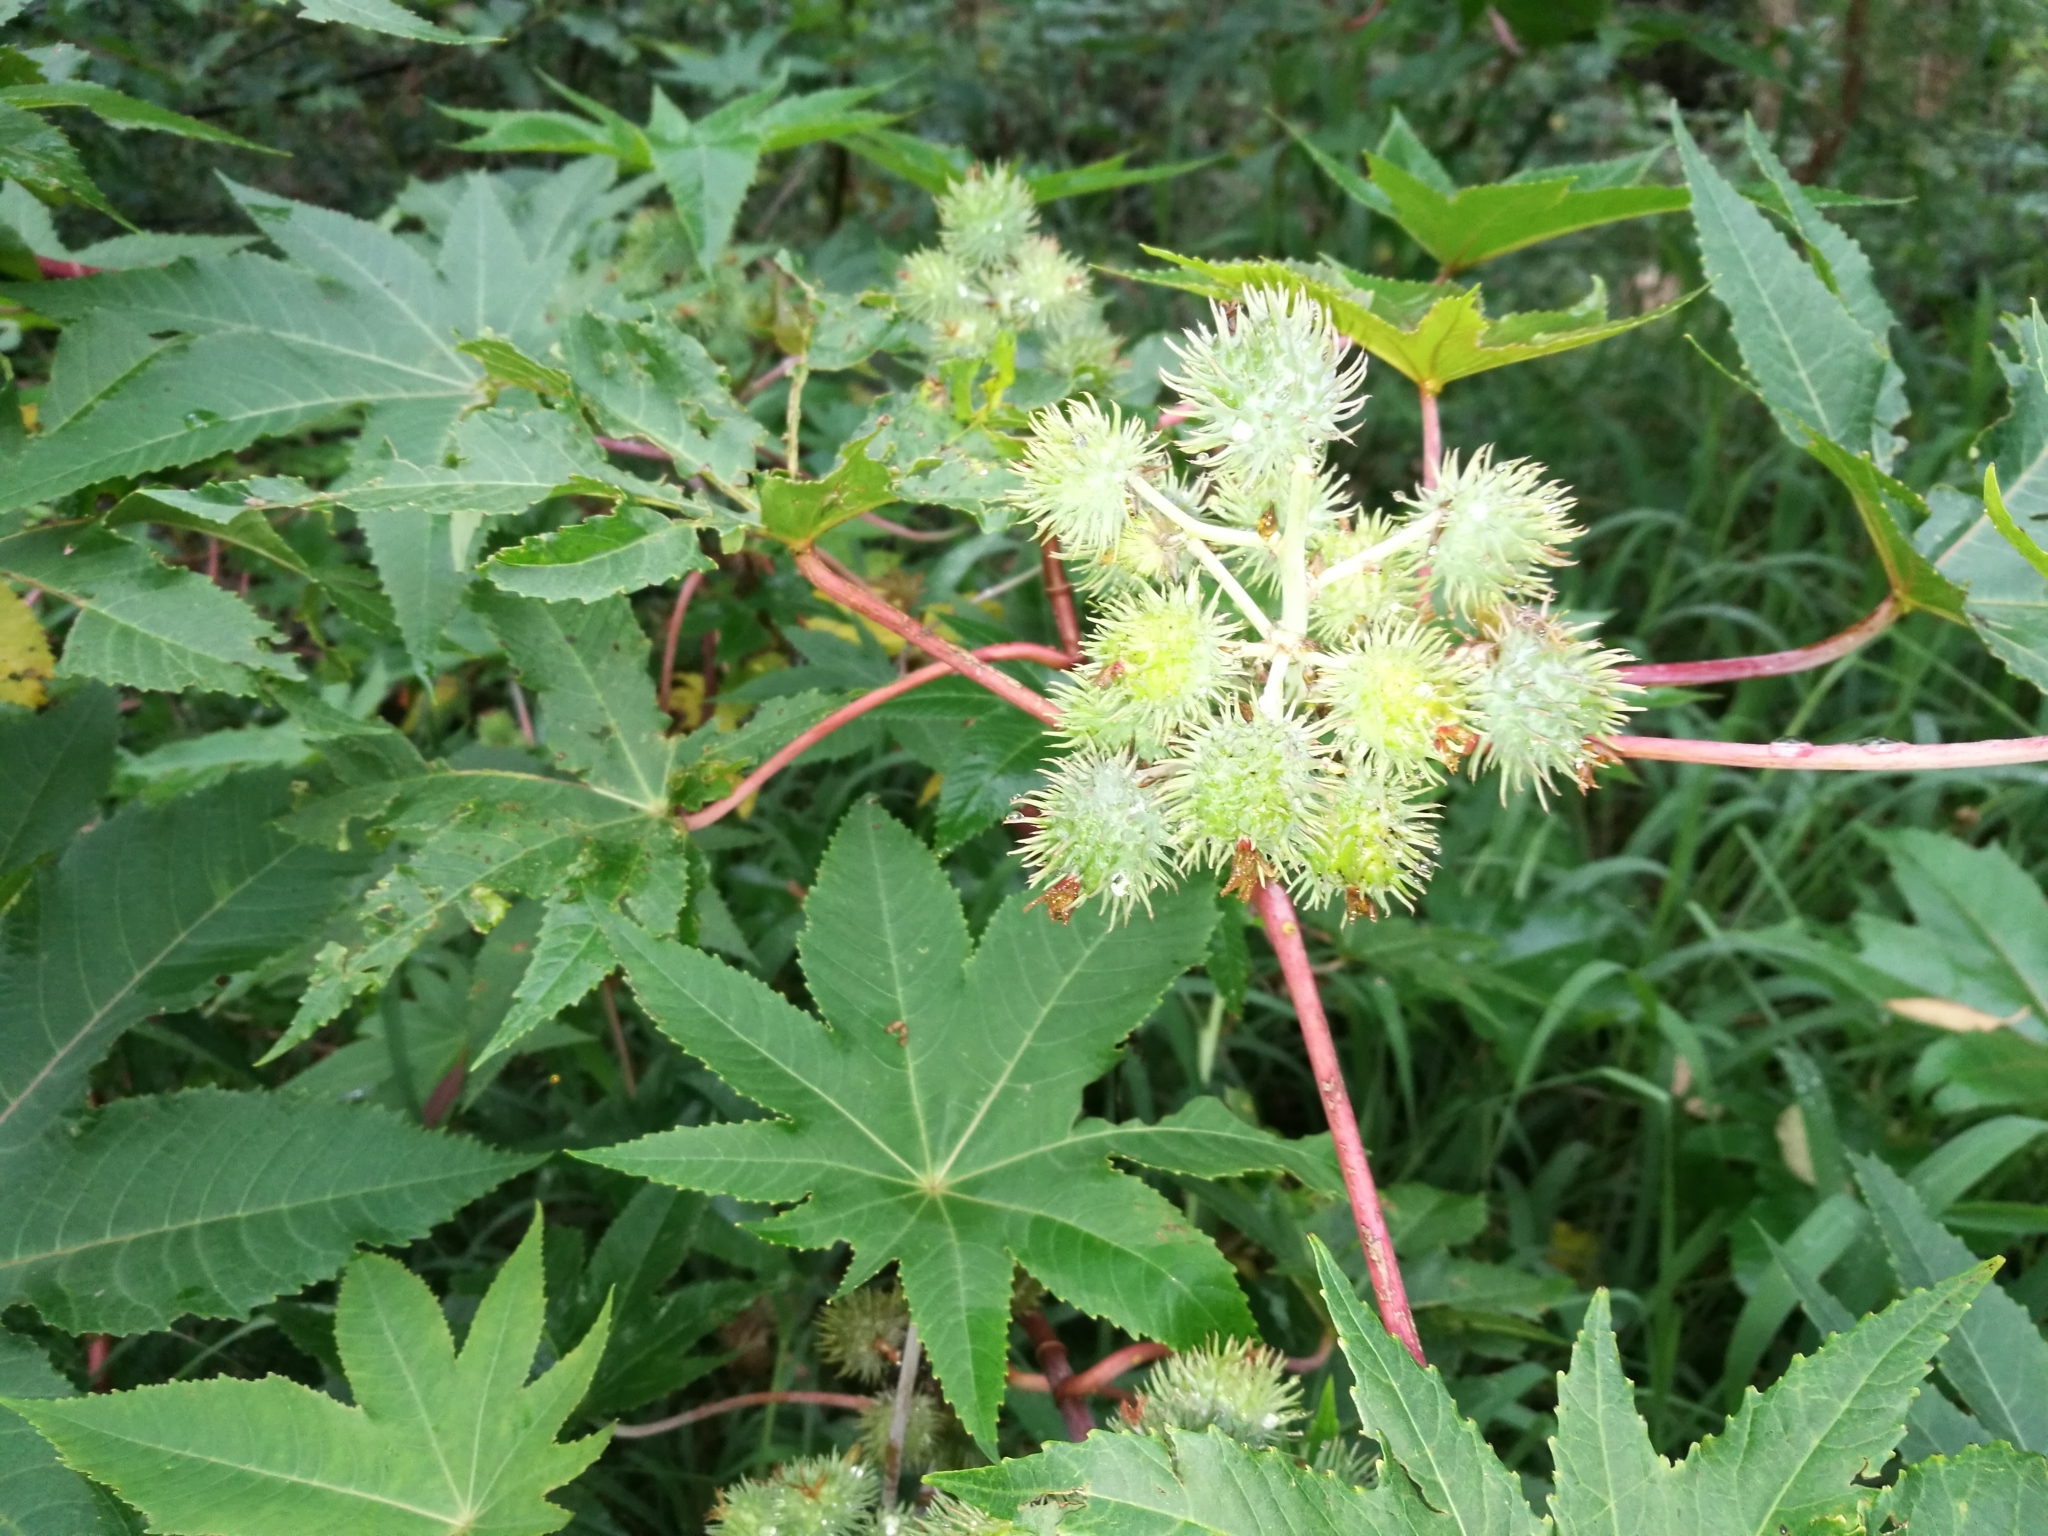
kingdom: Plantae
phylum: Tracheophyta
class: Magnoliopsida
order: Malpighiales
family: Euphorbiaceae
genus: Ricinus
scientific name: Ricinus communis
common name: Castor-oil-plant
